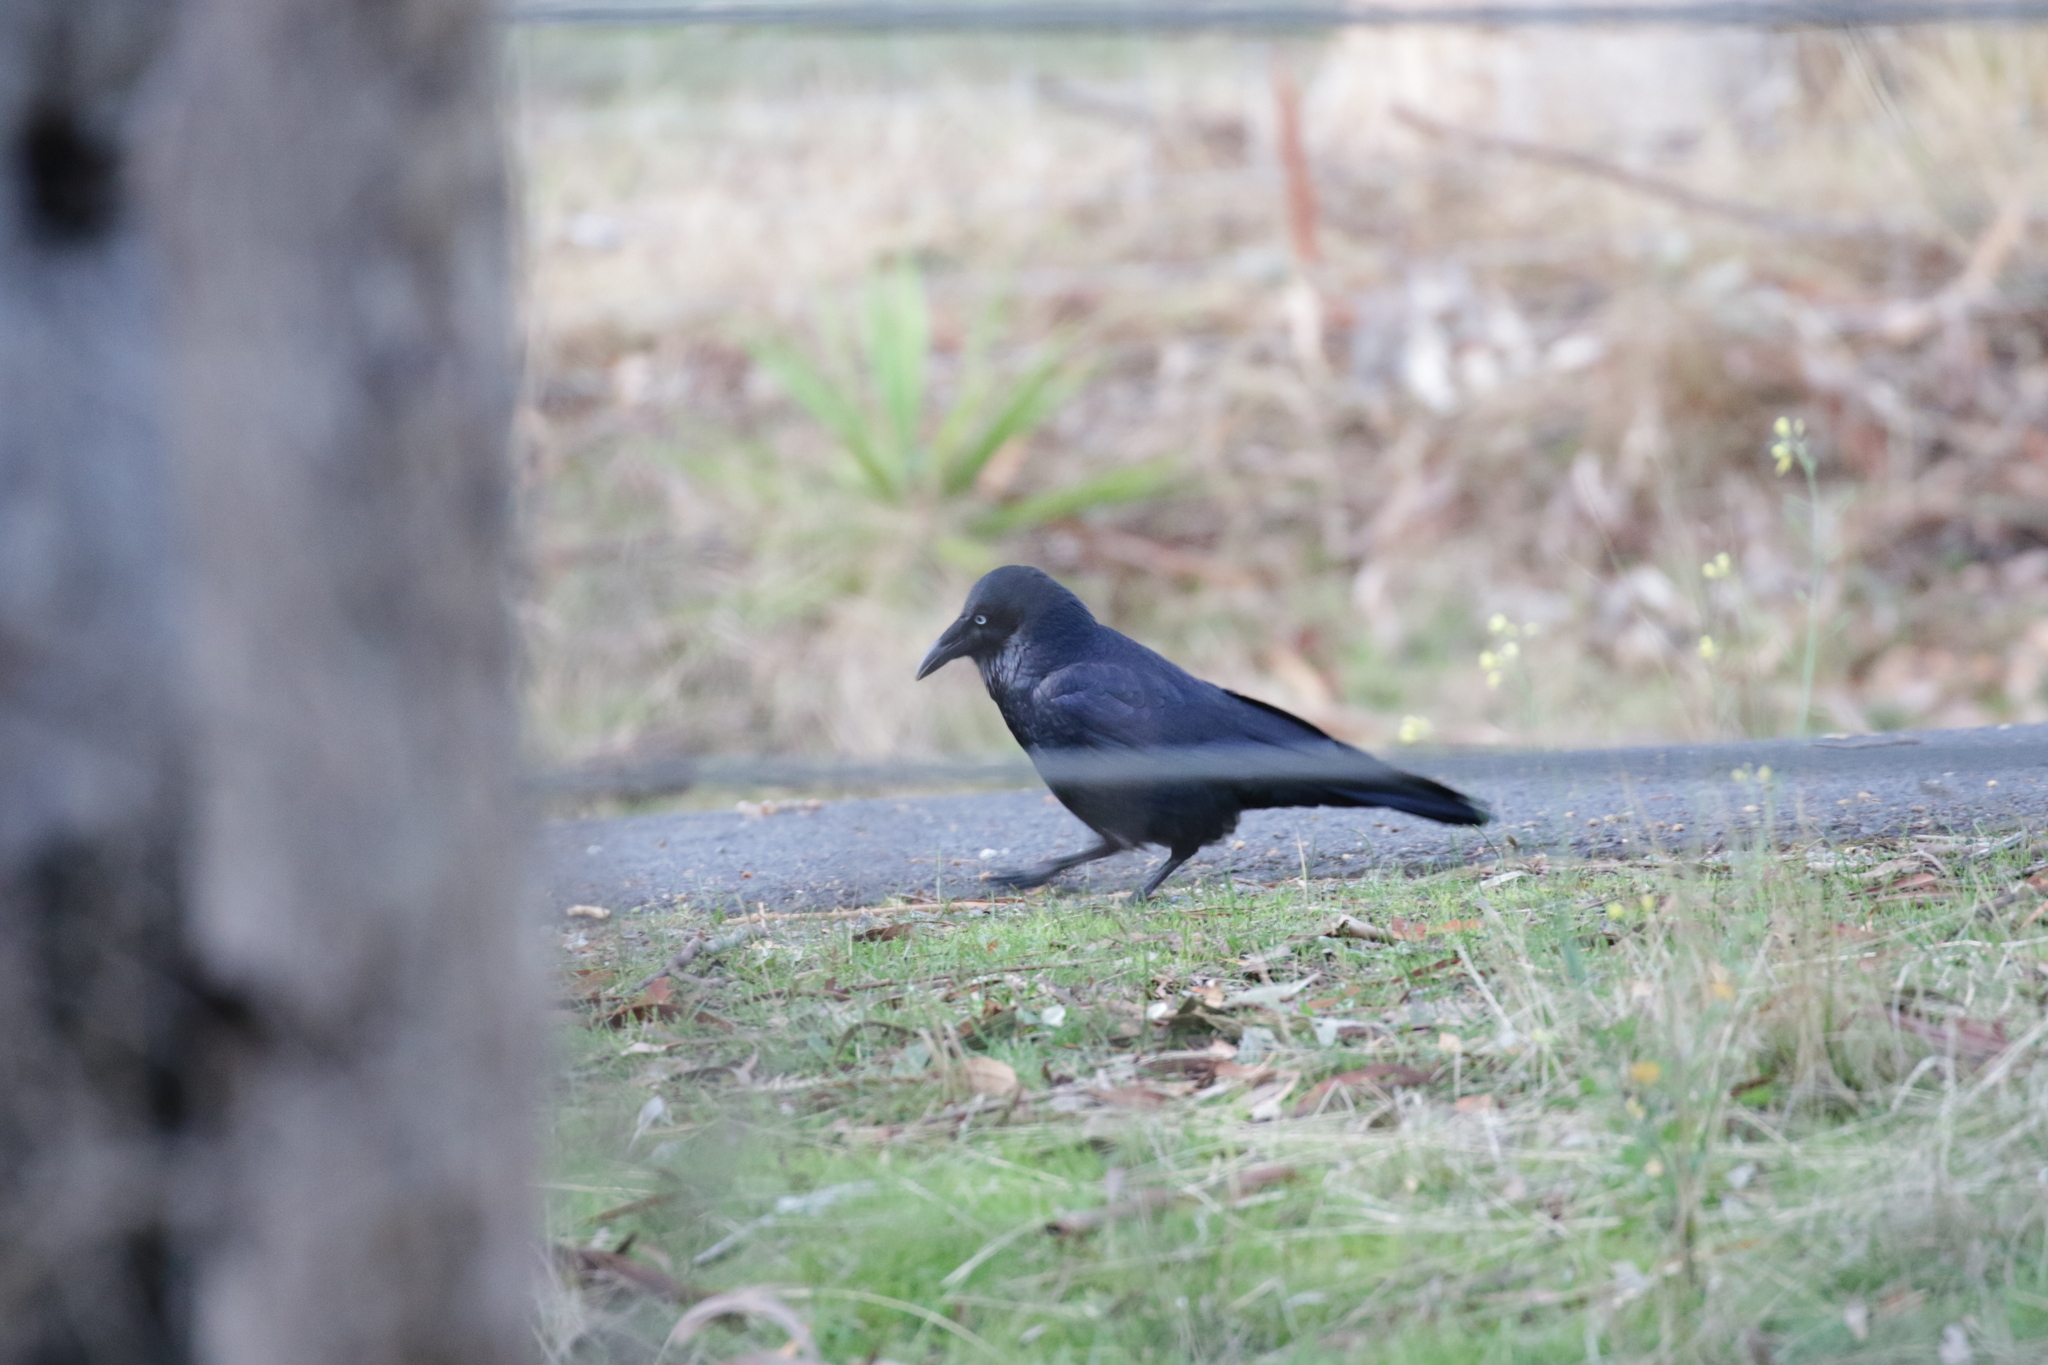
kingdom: Animalia
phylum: Chordata
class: Aves
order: Passeriformes
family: Corvidae
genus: Corvus
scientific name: Corvus mellori
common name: Little raven
